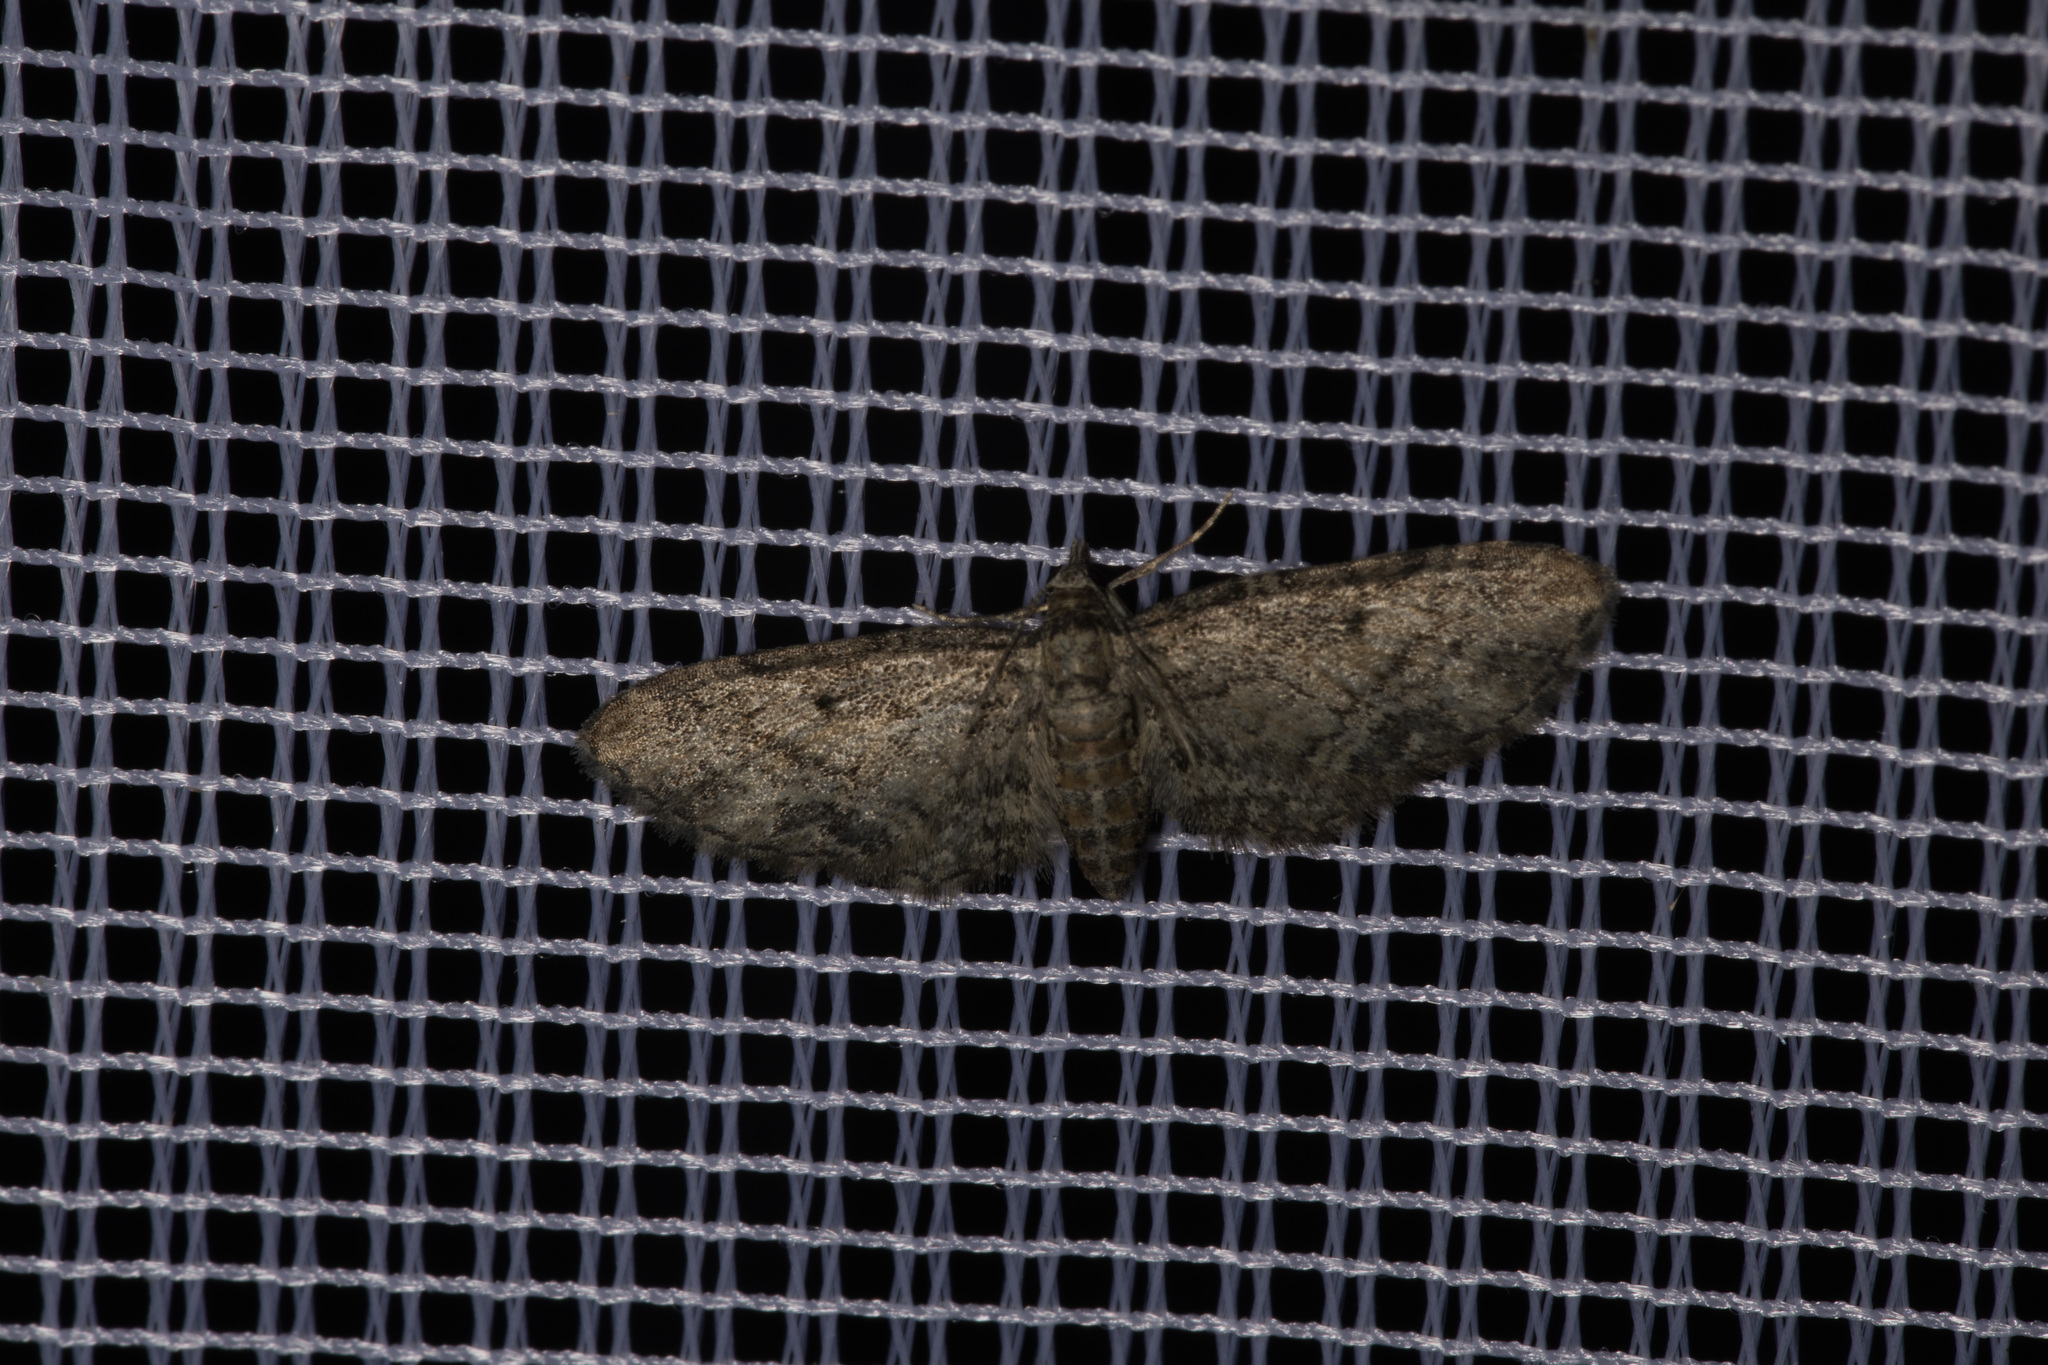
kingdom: Animalia
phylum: Arthropoda
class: Insecta
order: Lepidoptera
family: Geometridae
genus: Eupithecia
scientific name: Eupithecia inturbata
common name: Maple pug
